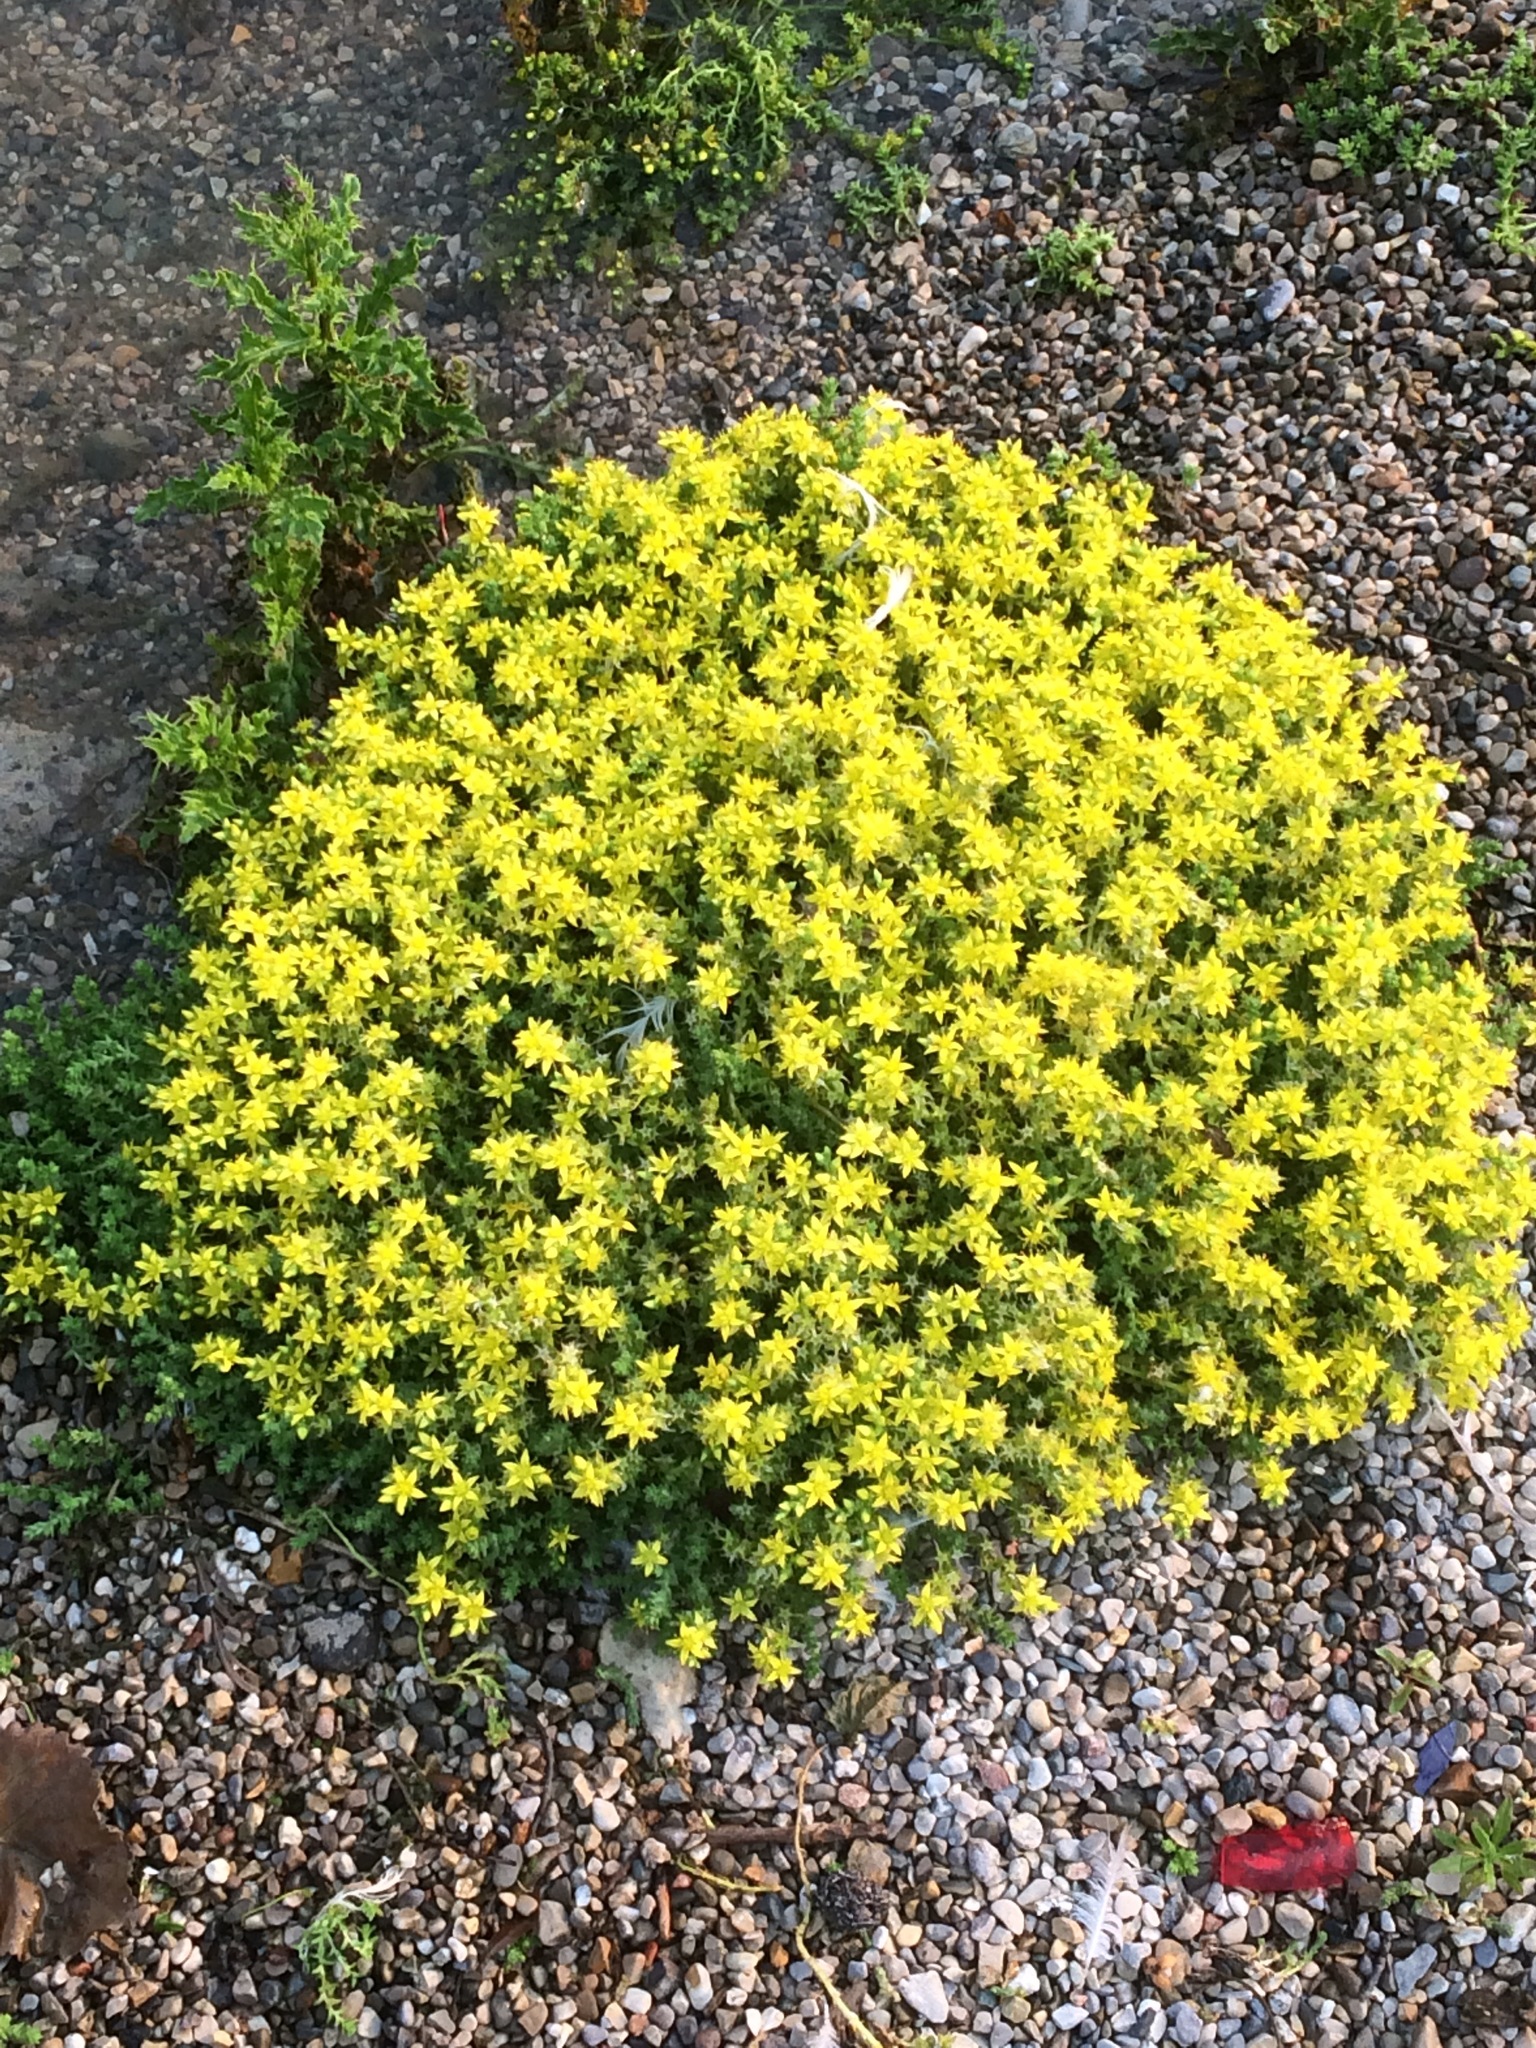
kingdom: Plantae
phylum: Tracheophyta
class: Magnoliopsida
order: Saxifragales
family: Crassulaceae
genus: Sedum
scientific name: Sedum acre
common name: Biting stonecrop
